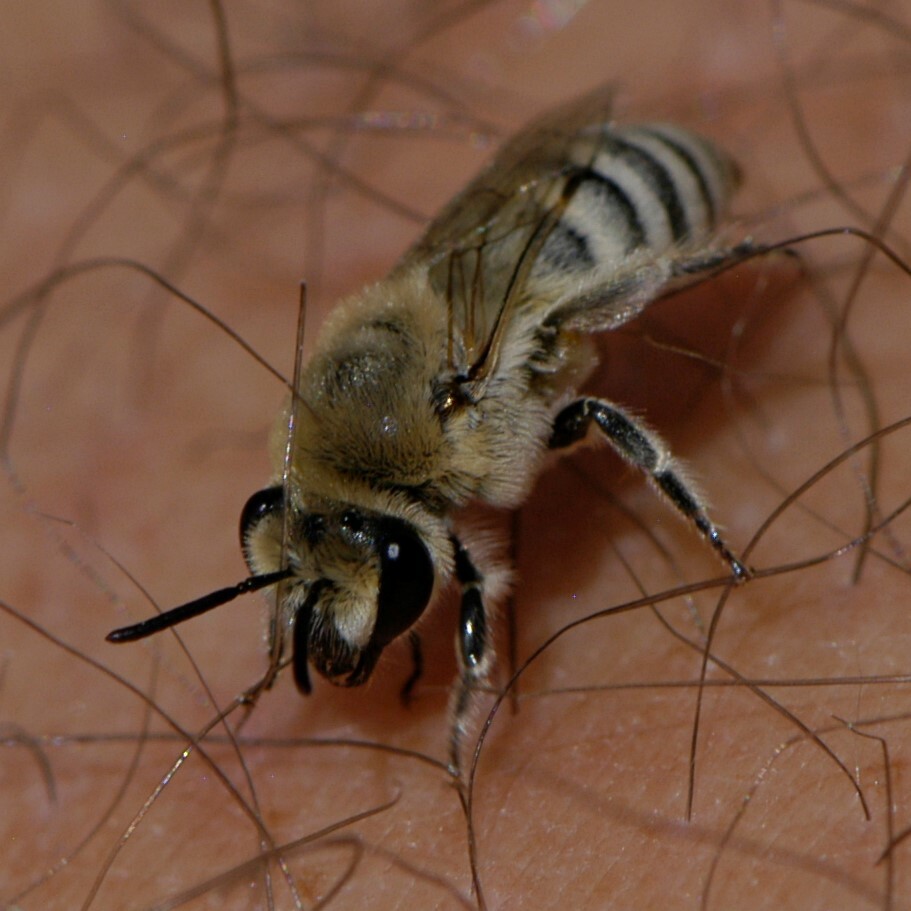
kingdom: Animalia
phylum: Arthropoda
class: Insecta
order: Hymenoptera
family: Colletidae
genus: Colletes
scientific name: Colletes
